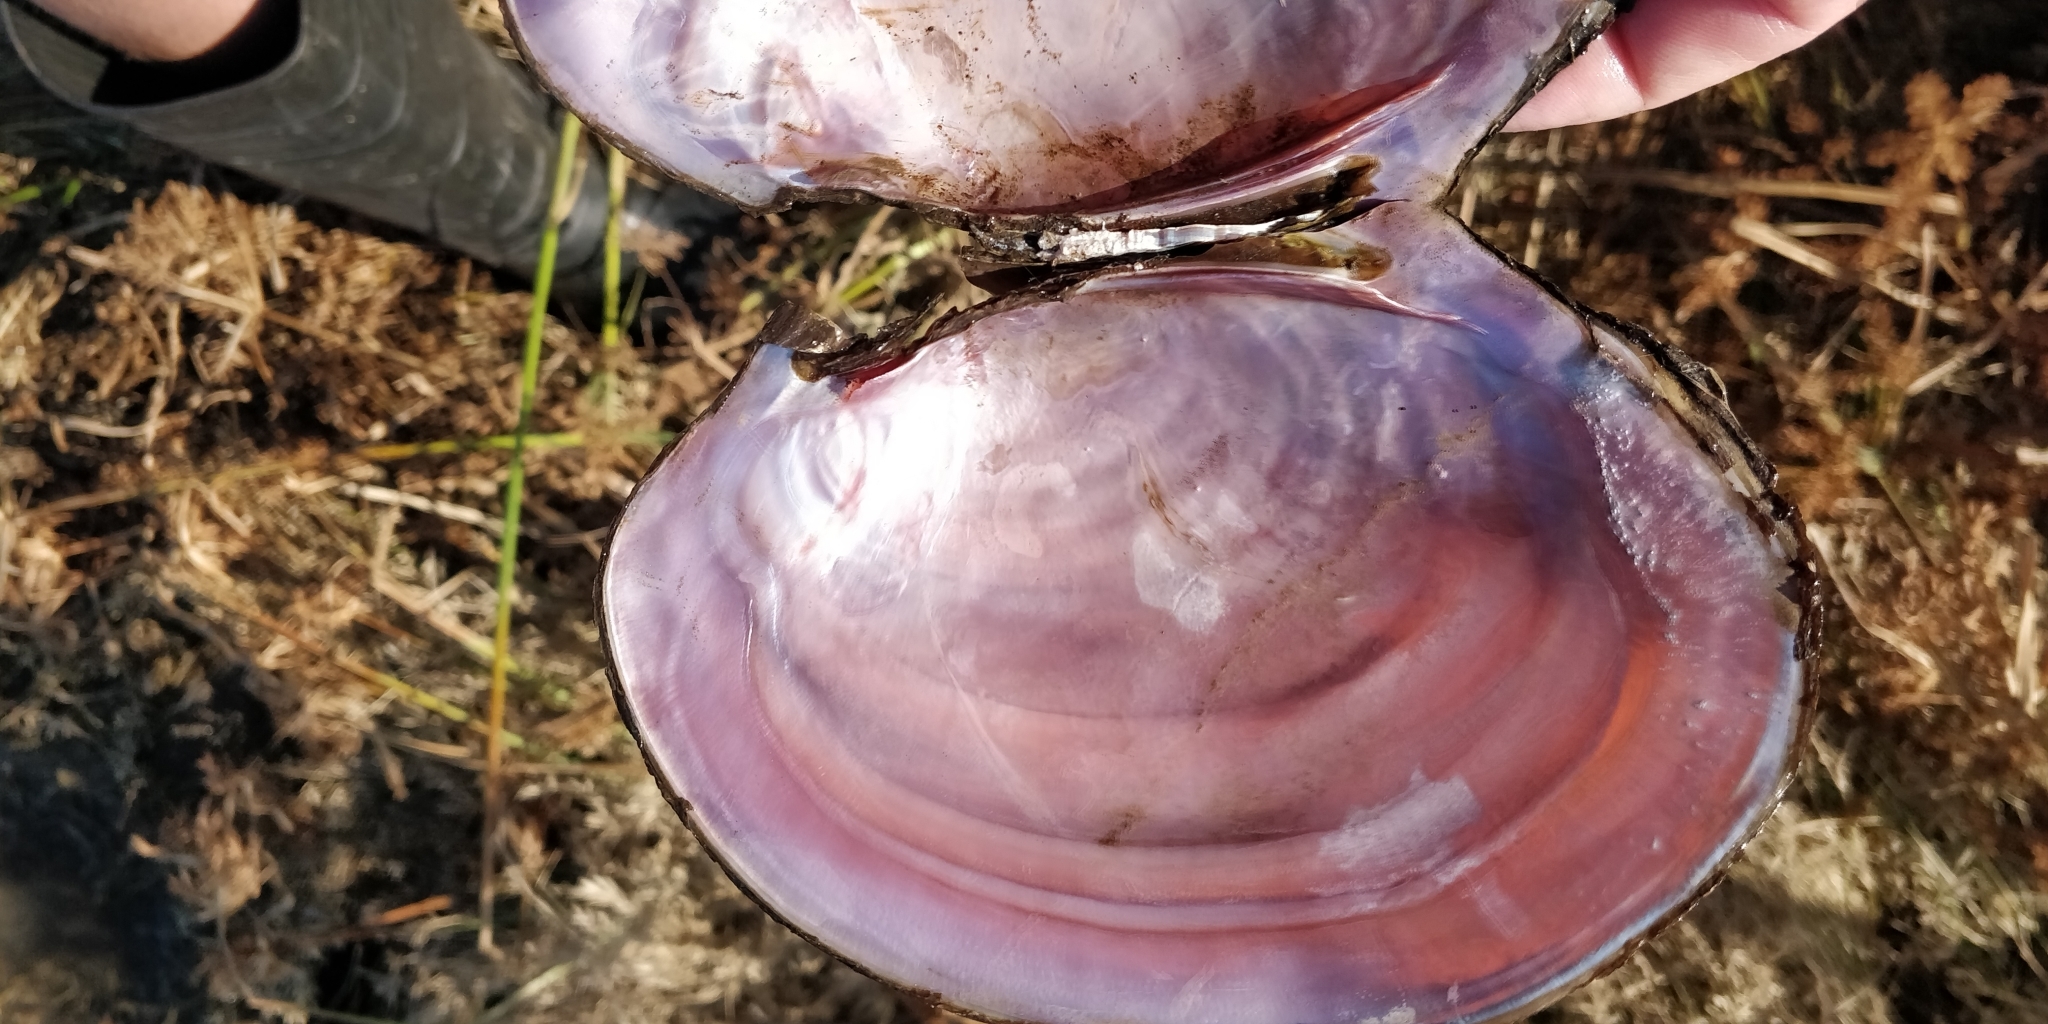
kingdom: Animalia
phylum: Mollusca
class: Bivalvia
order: Unionida
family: Unionidae
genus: Potamilus
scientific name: Potamilus ohiensis
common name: Pink papershell
